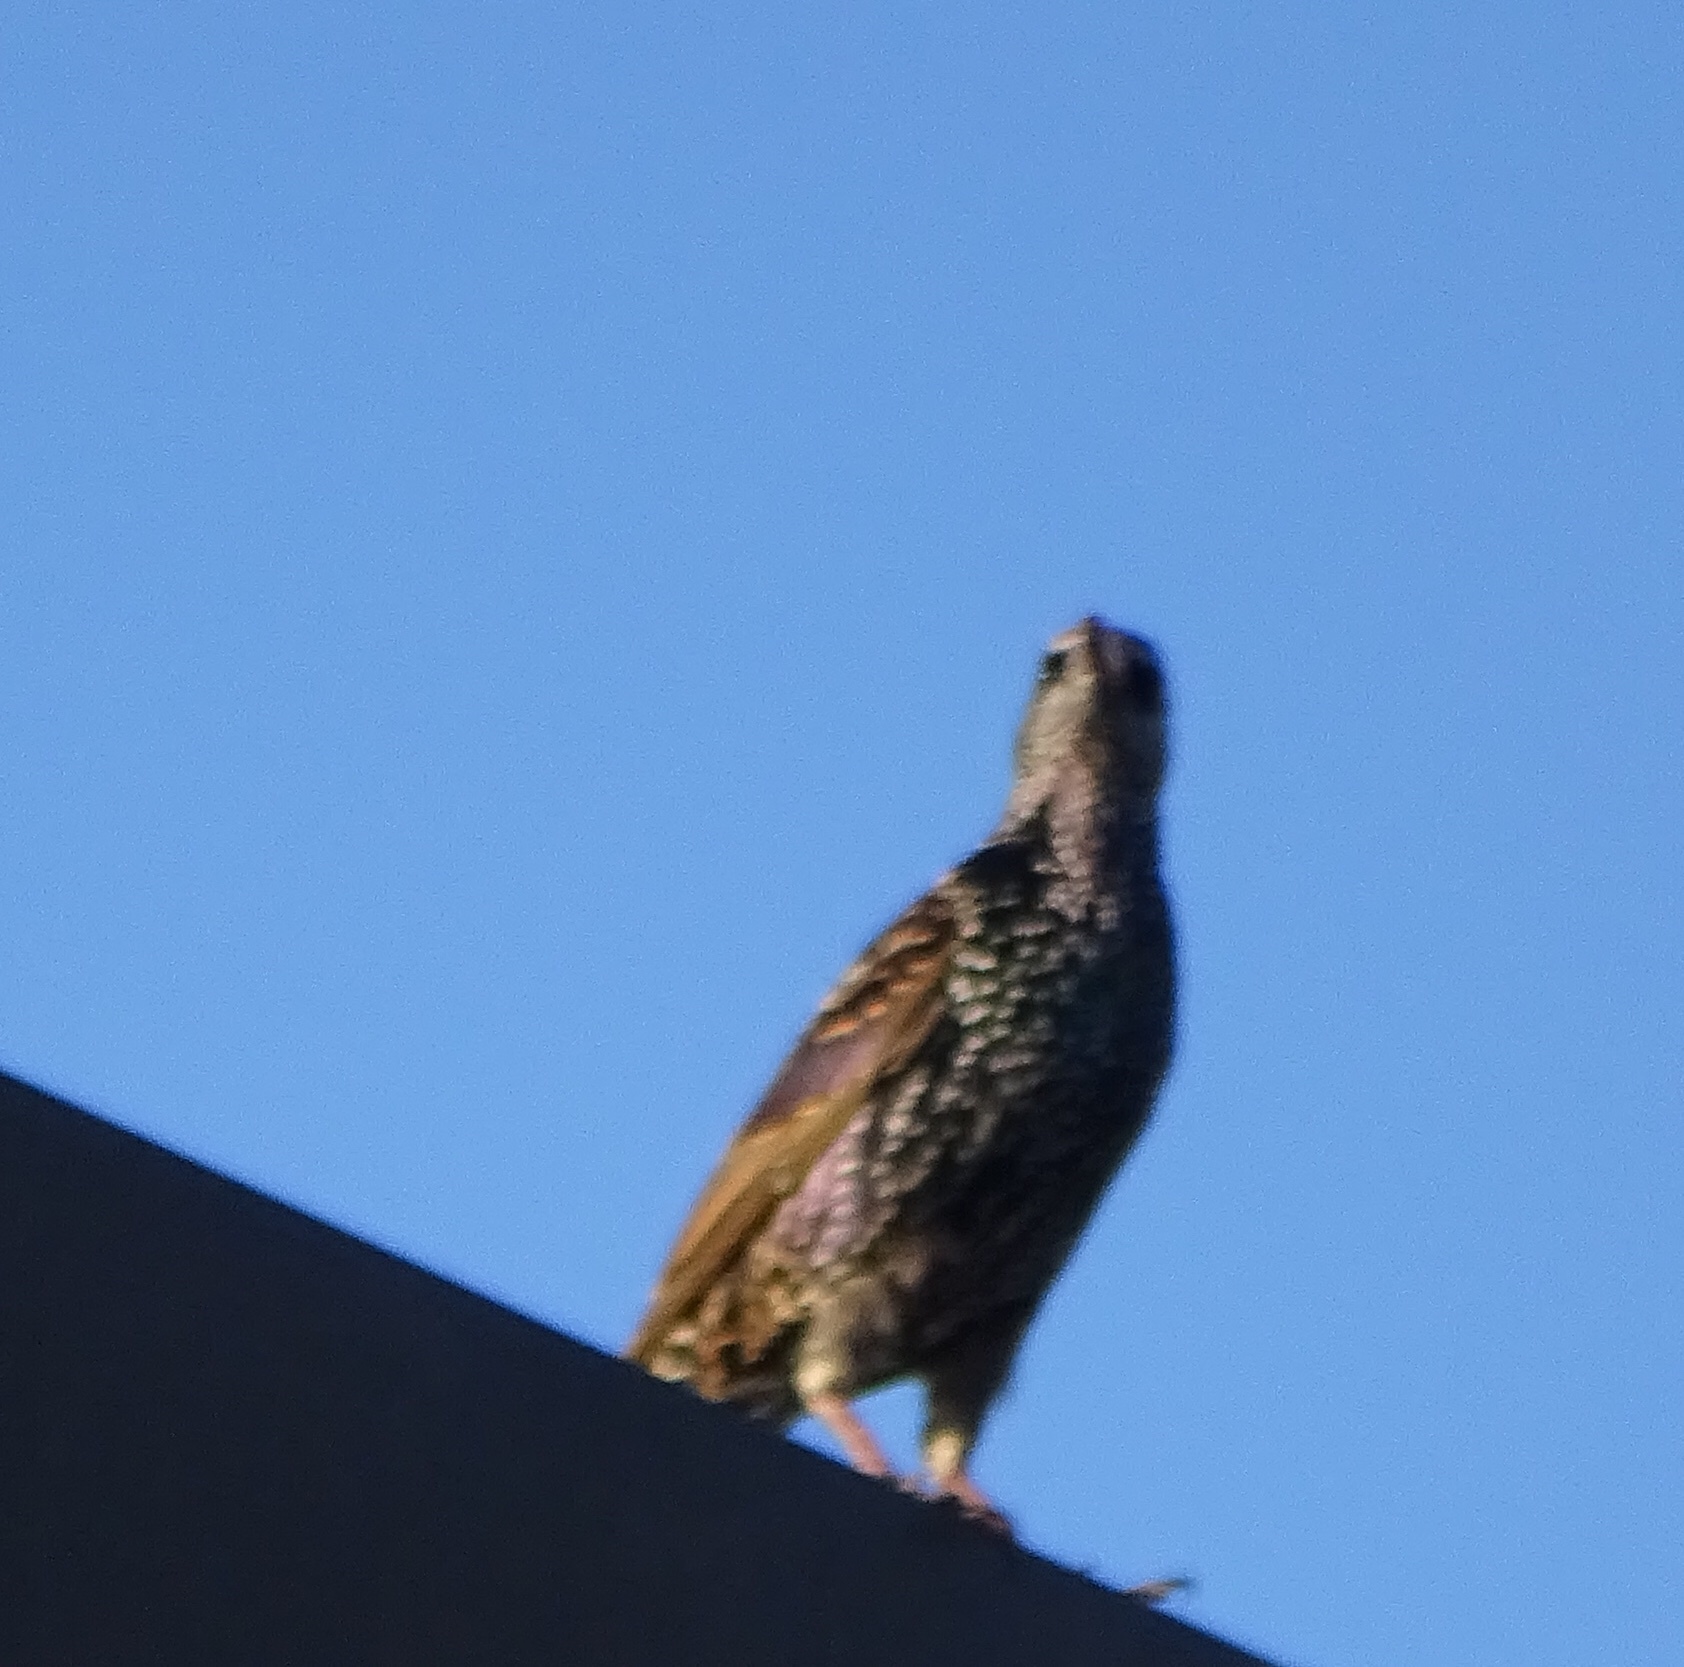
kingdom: Animalia
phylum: Chordata
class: Aves
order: Passeriformes
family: Sturnidae
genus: Sturnus
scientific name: Sturnus vulgaris
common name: Common starling
